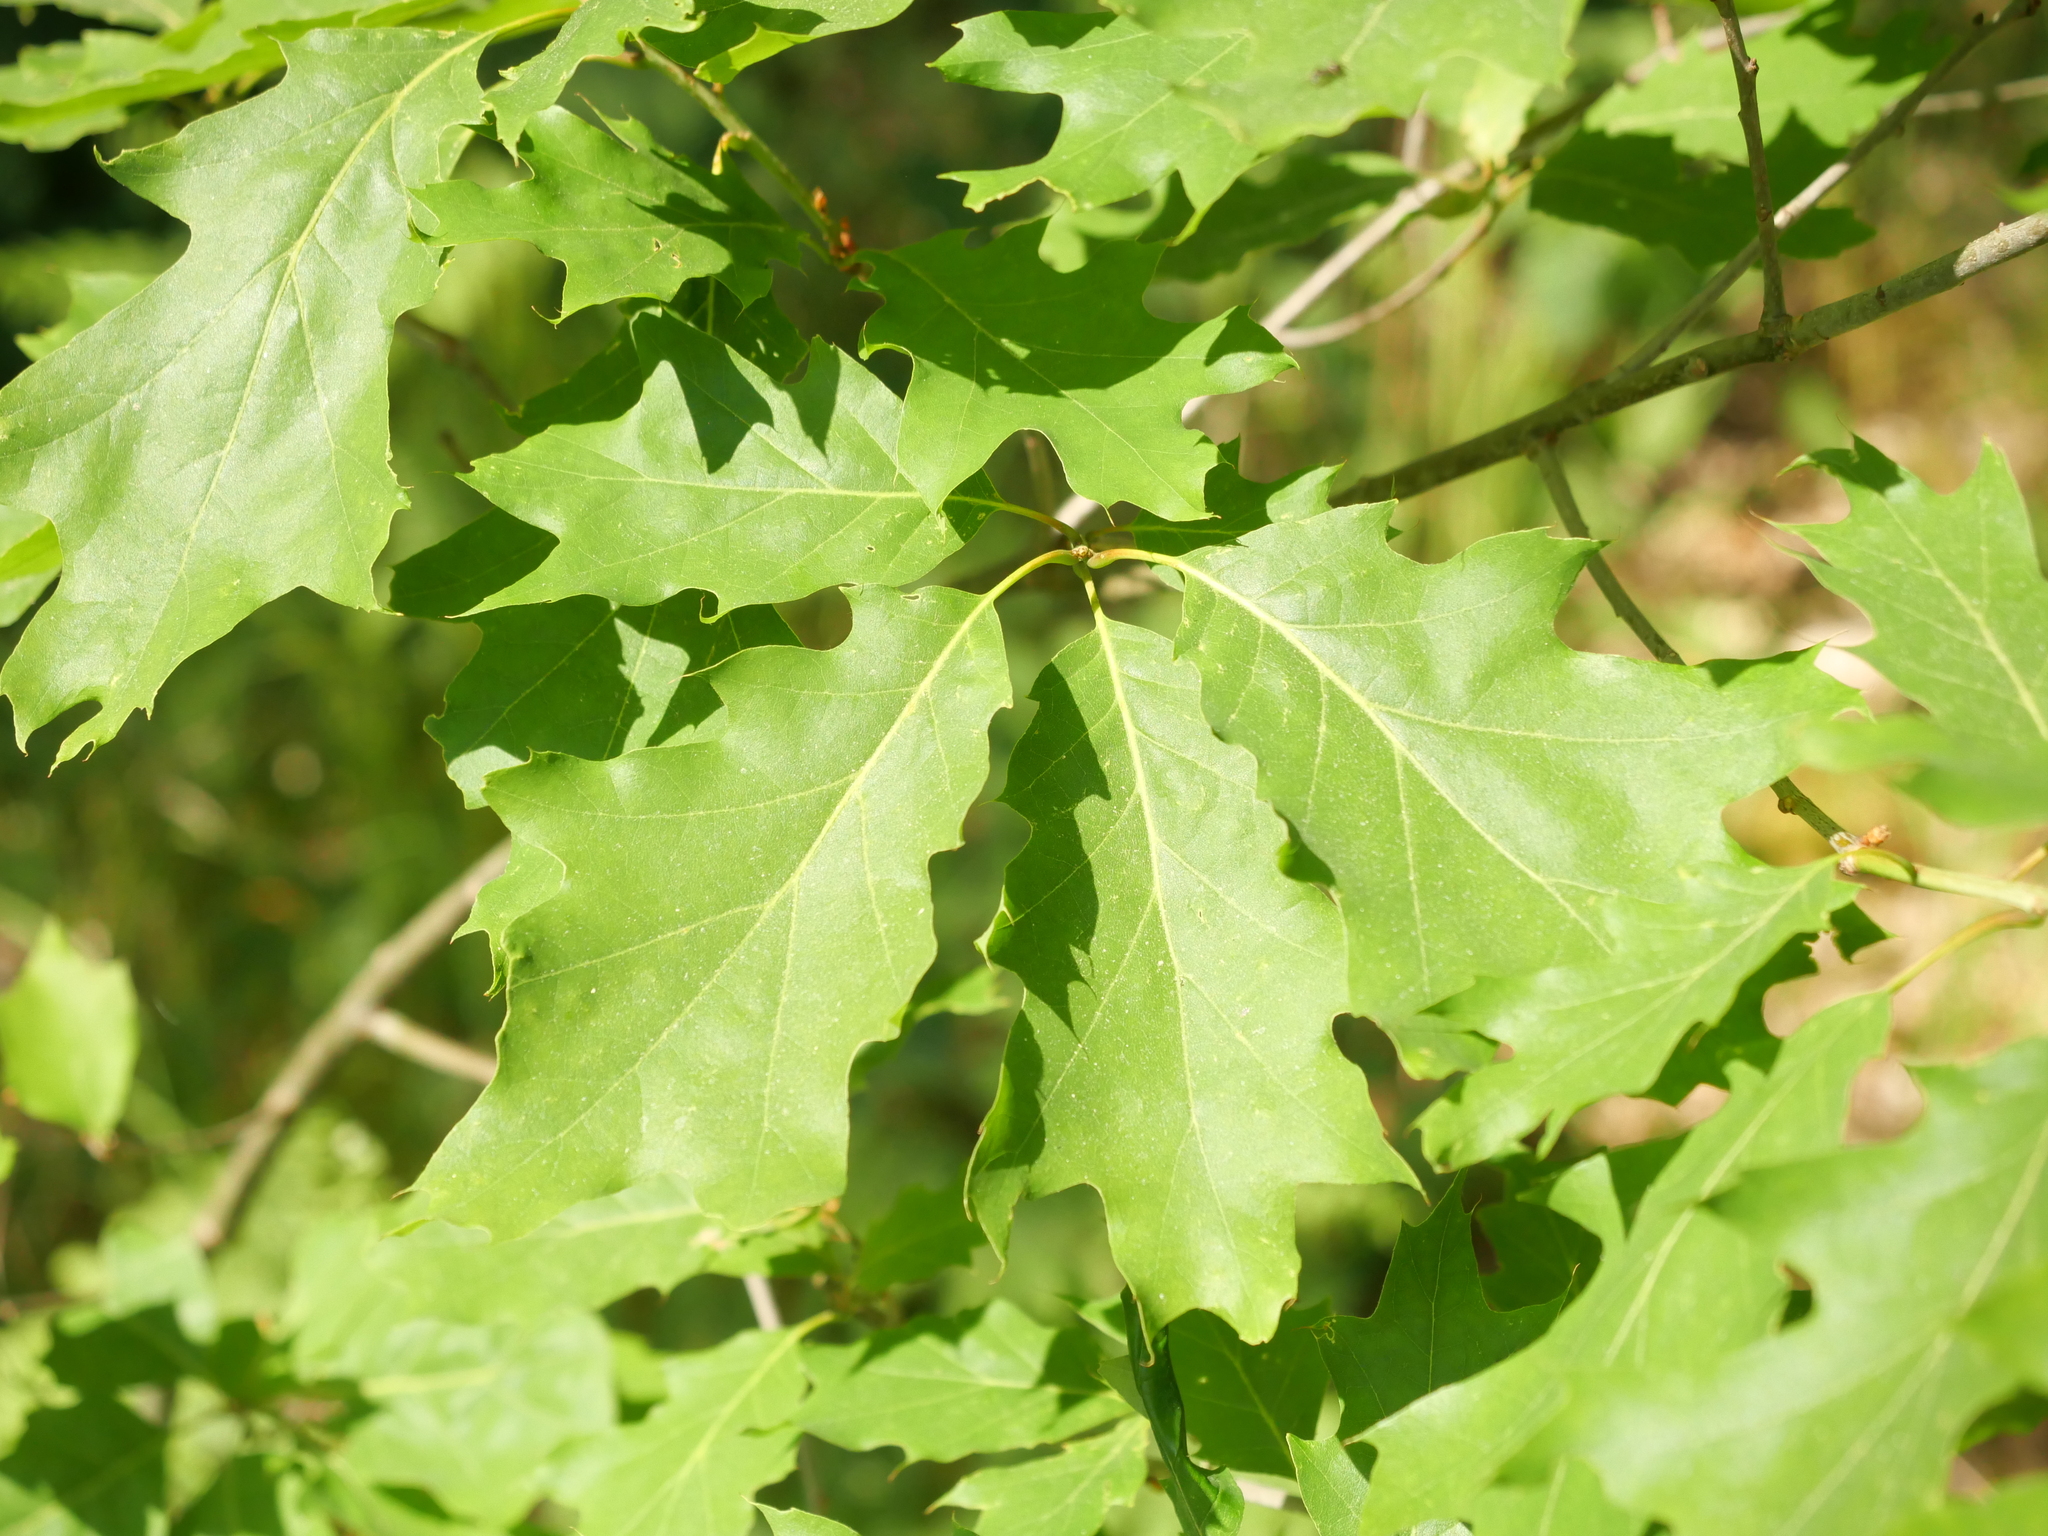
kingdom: Plantae
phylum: Tracheophyta
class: Magnoliopsida
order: Fagales
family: Fagaceae
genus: Quercus
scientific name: Quercus rubra
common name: Red oak
